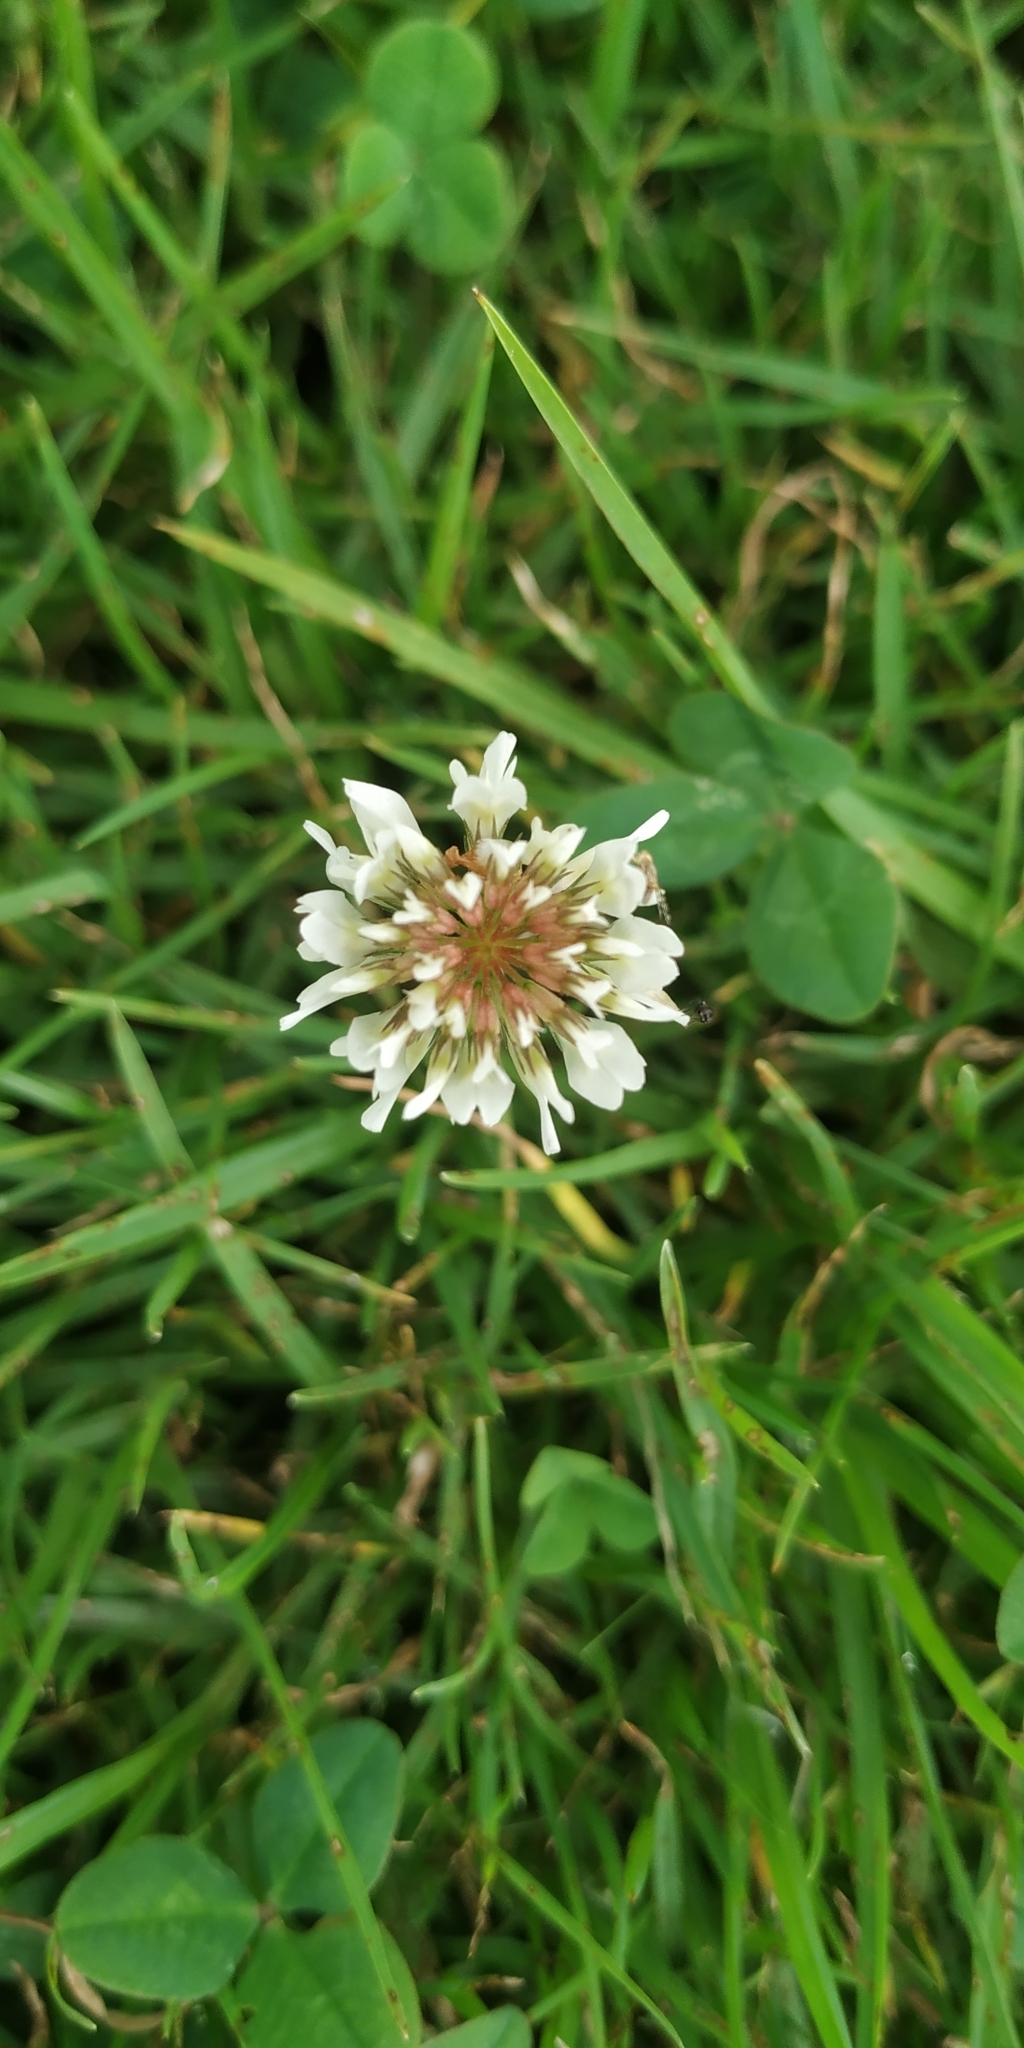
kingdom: Plantae
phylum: Tracheophyta
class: Magnoliopsida
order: Fabales
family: Fabaceae
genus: Trifolium
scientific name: Trifolium repens
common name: White clover
